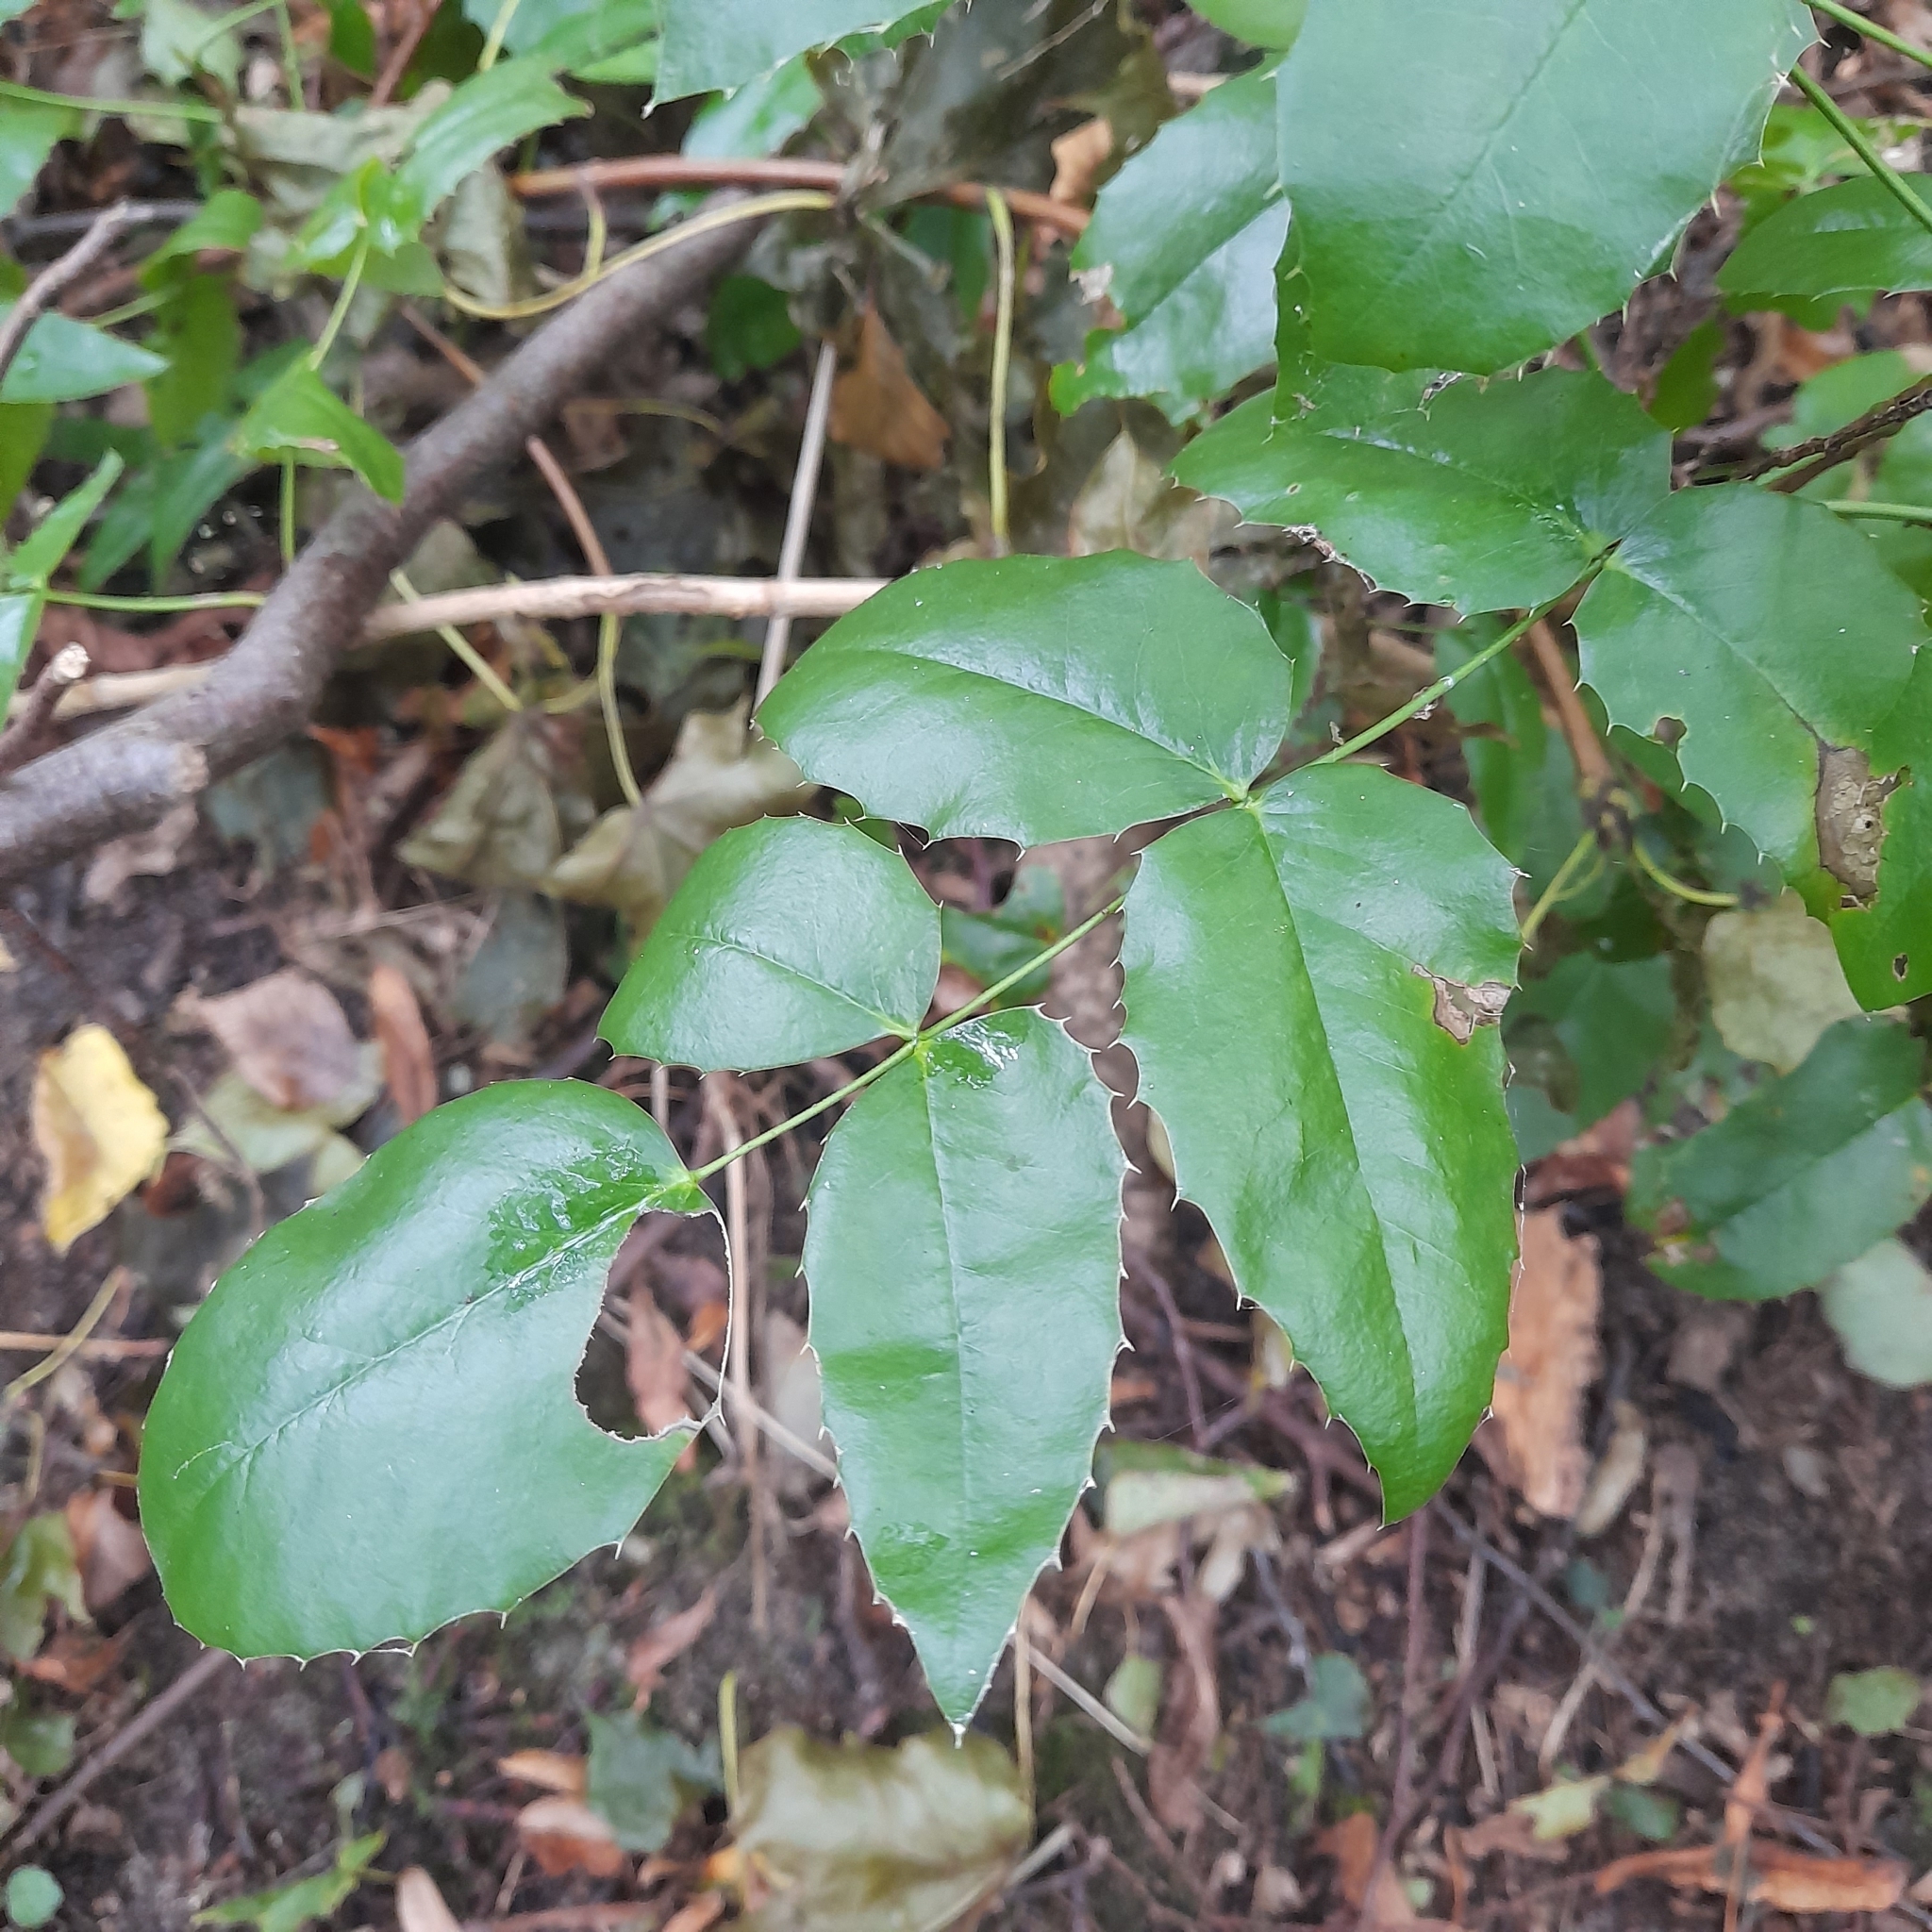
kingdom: Plantae
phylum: Tracheophyta
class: Magnoliopsida
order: Ranunculales
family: Berberidaceae
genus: Mahonia
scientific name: Mahonia aquifolium
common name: Oregon-grape
